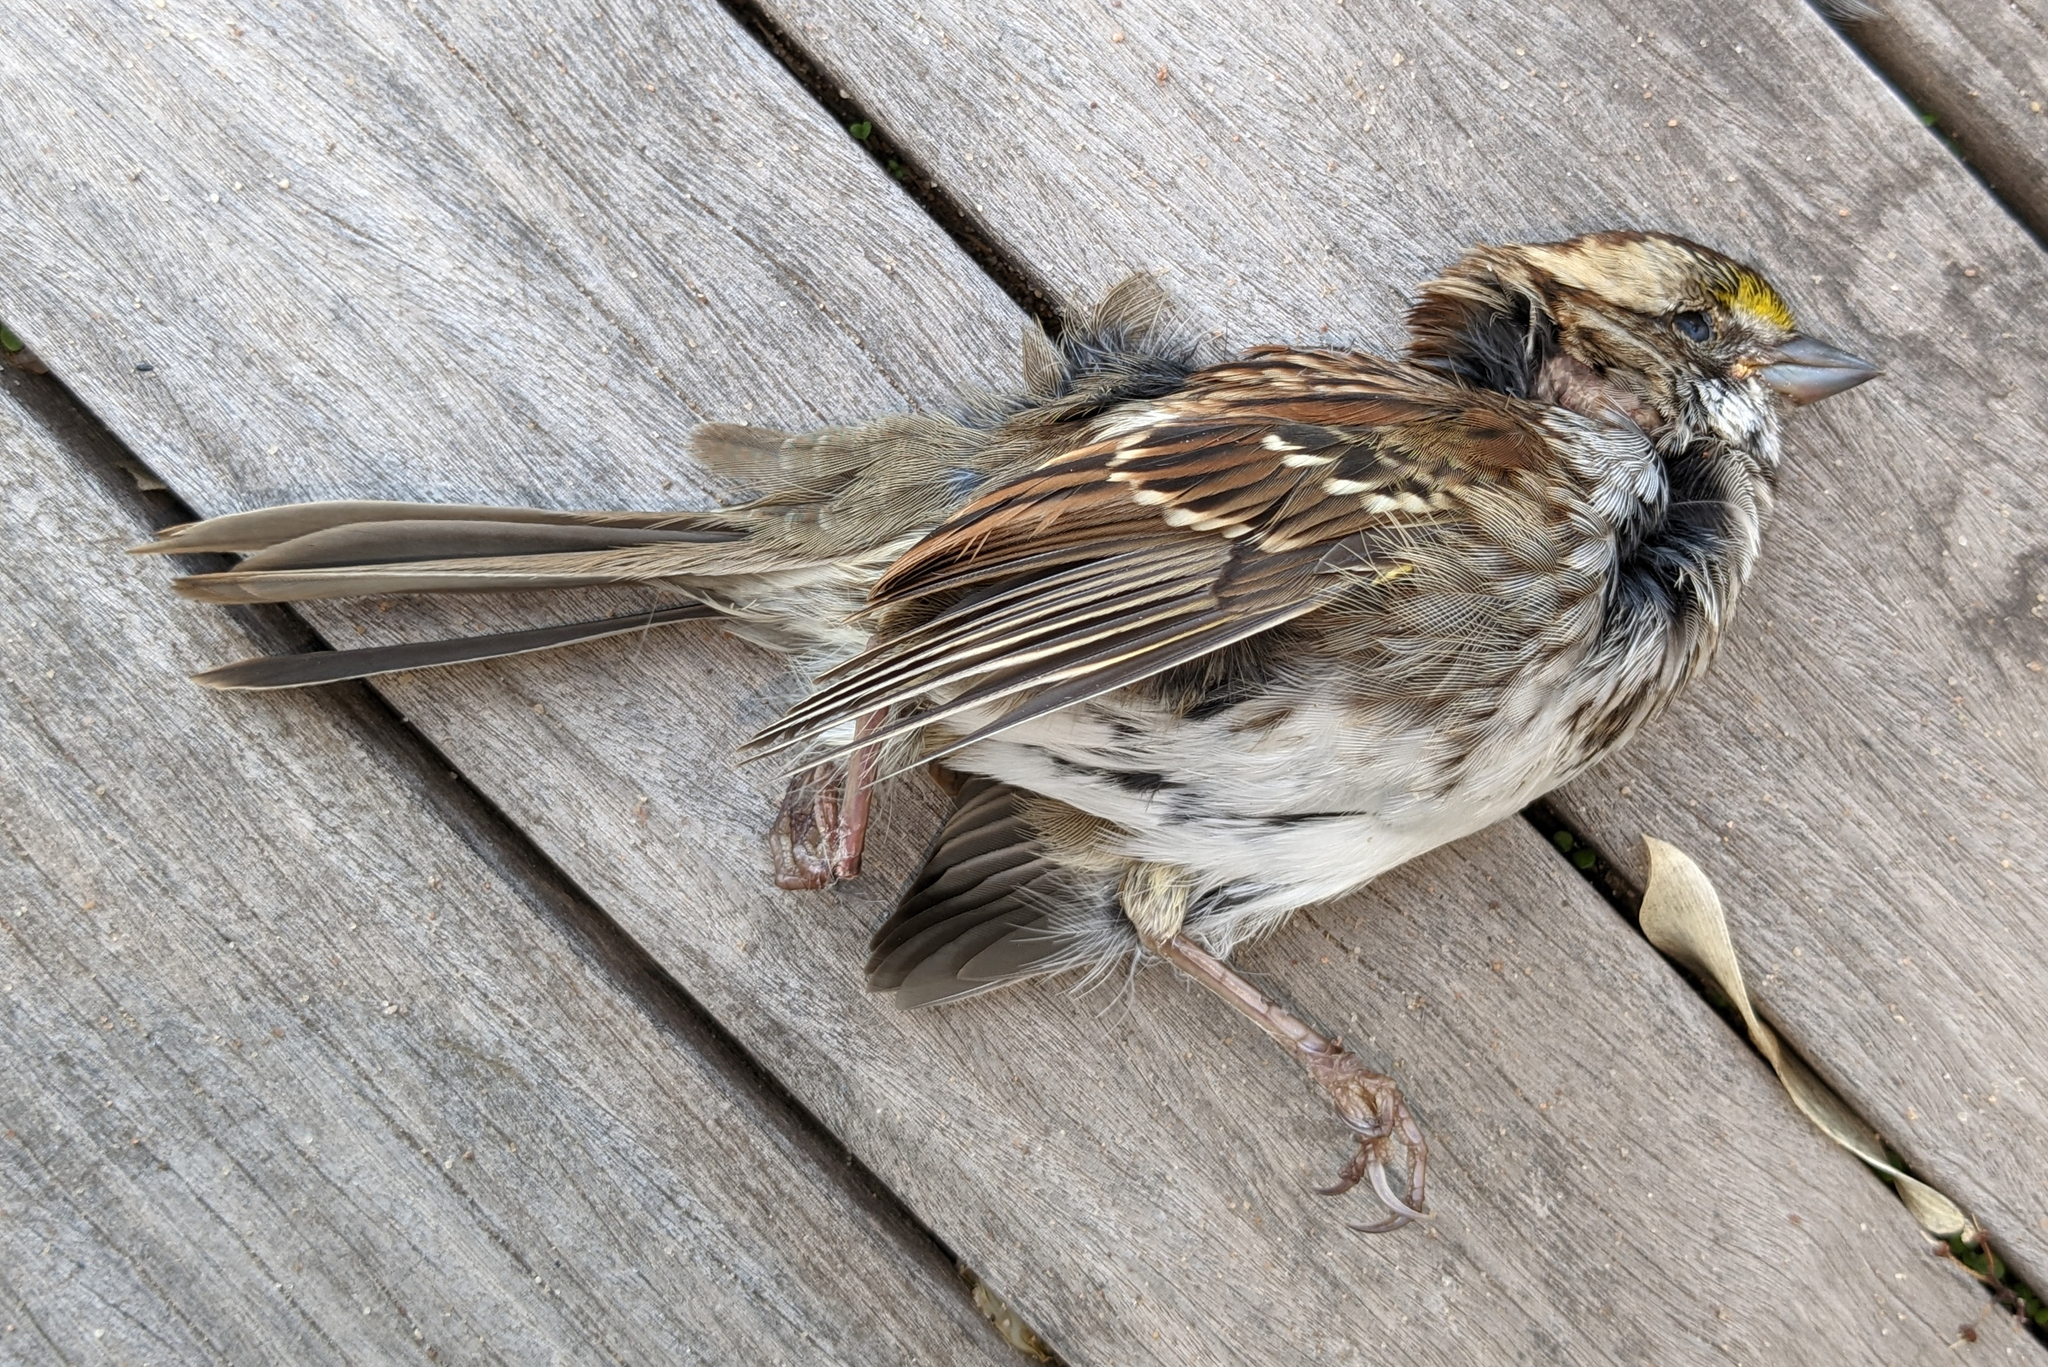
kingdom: Animalia
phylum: Chordata
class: Aves
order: Passeriformes
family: Passerellidae
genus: Zonotrichia
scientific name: Zonotrichia albicollis
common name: White-throated sparrow
